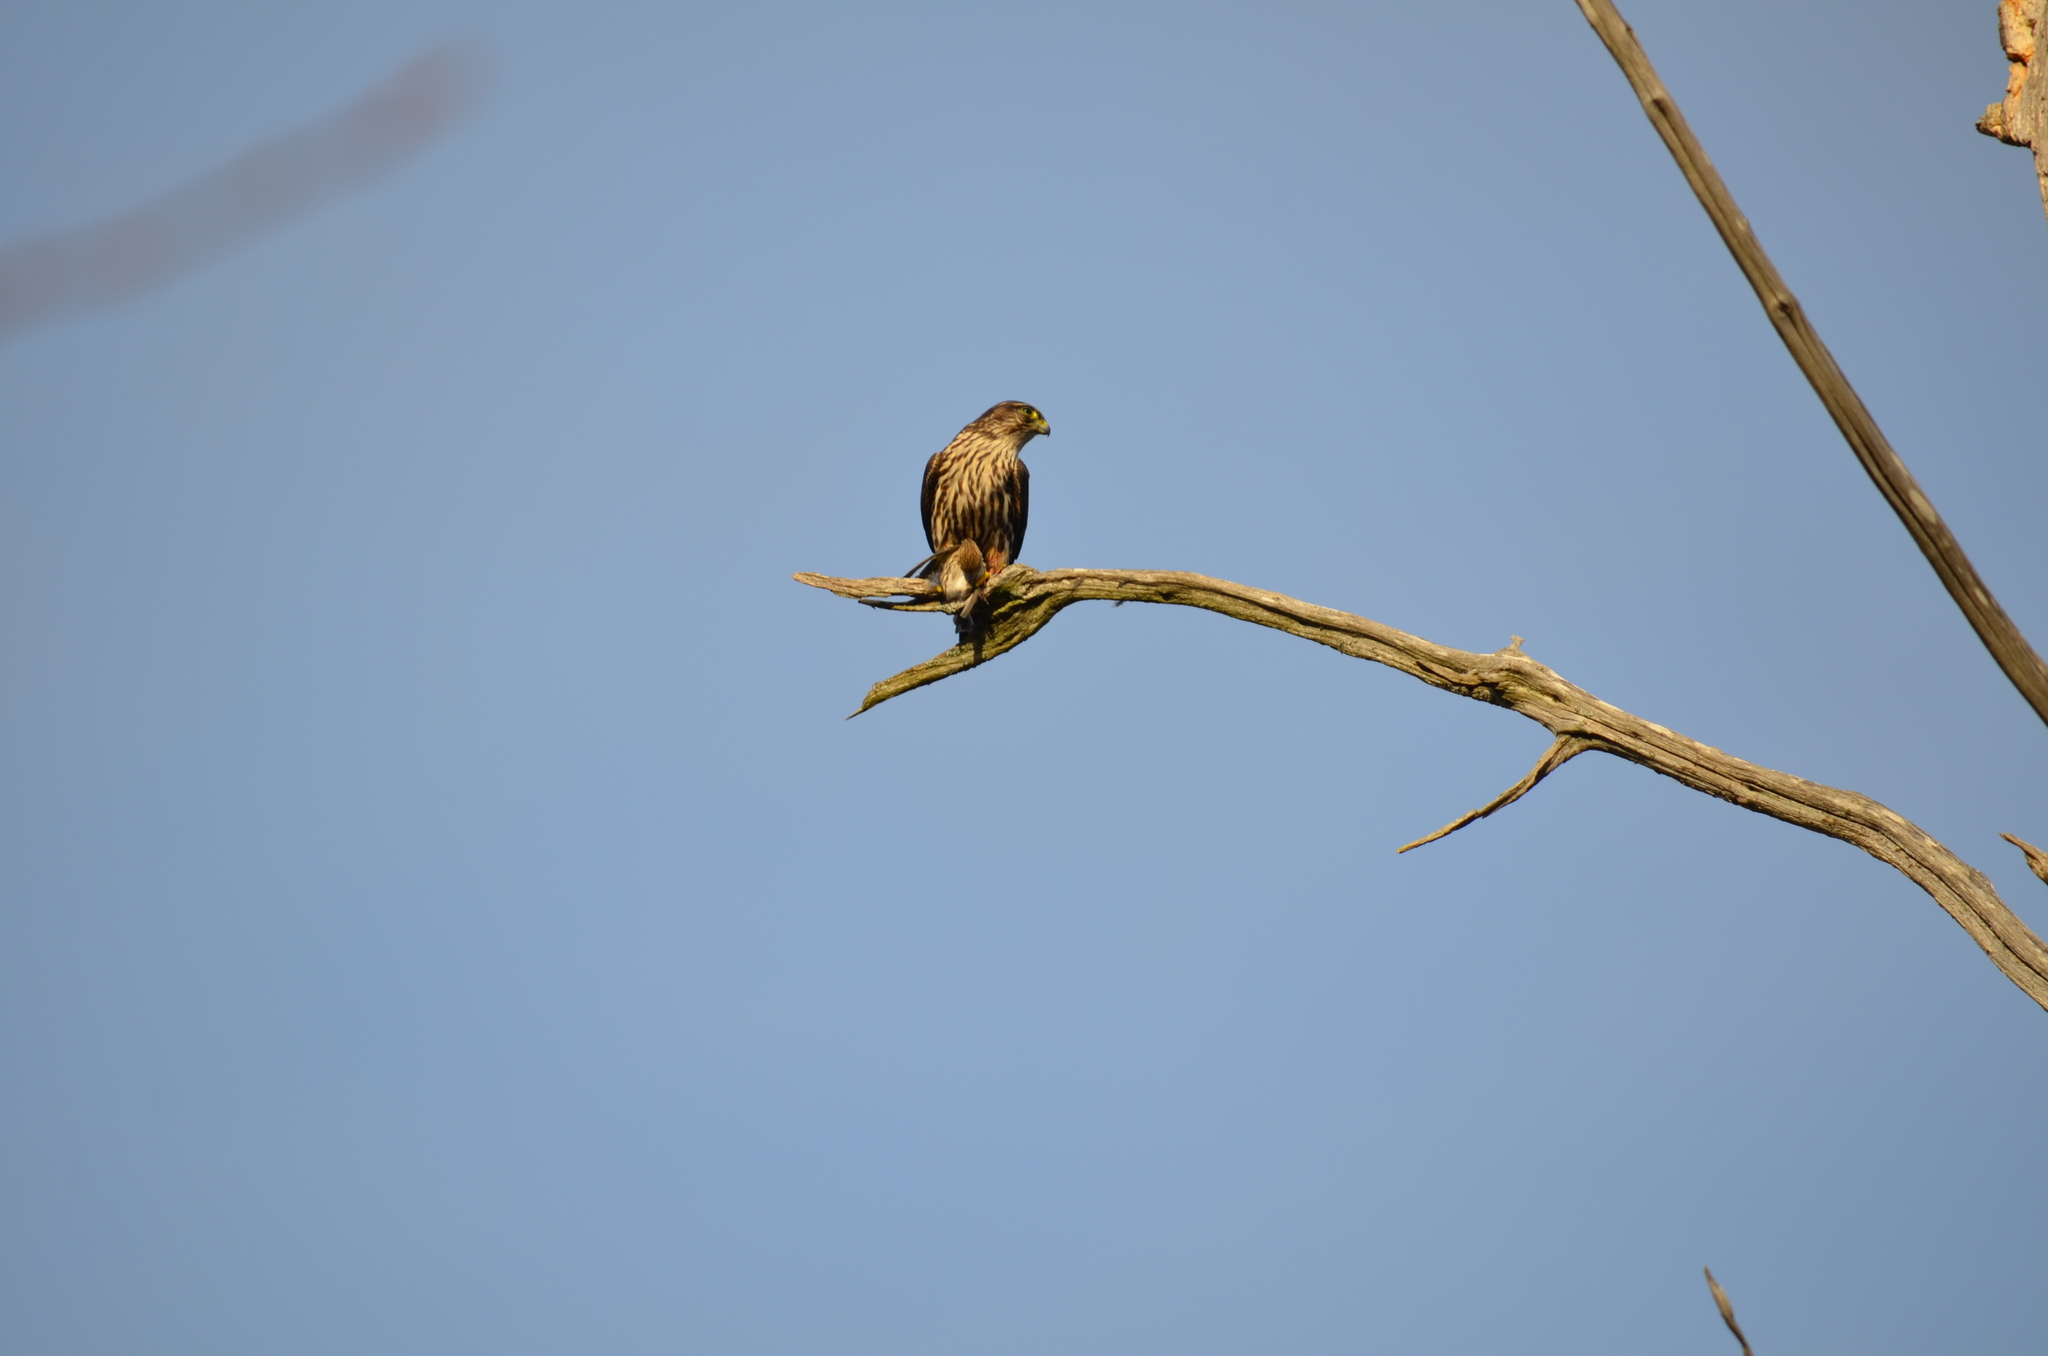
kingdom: Animalia
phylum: Chordata
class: Aves
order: Falconiformes
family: Falconidae
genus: Falco
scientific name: Falco columbarius
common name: Merlin
